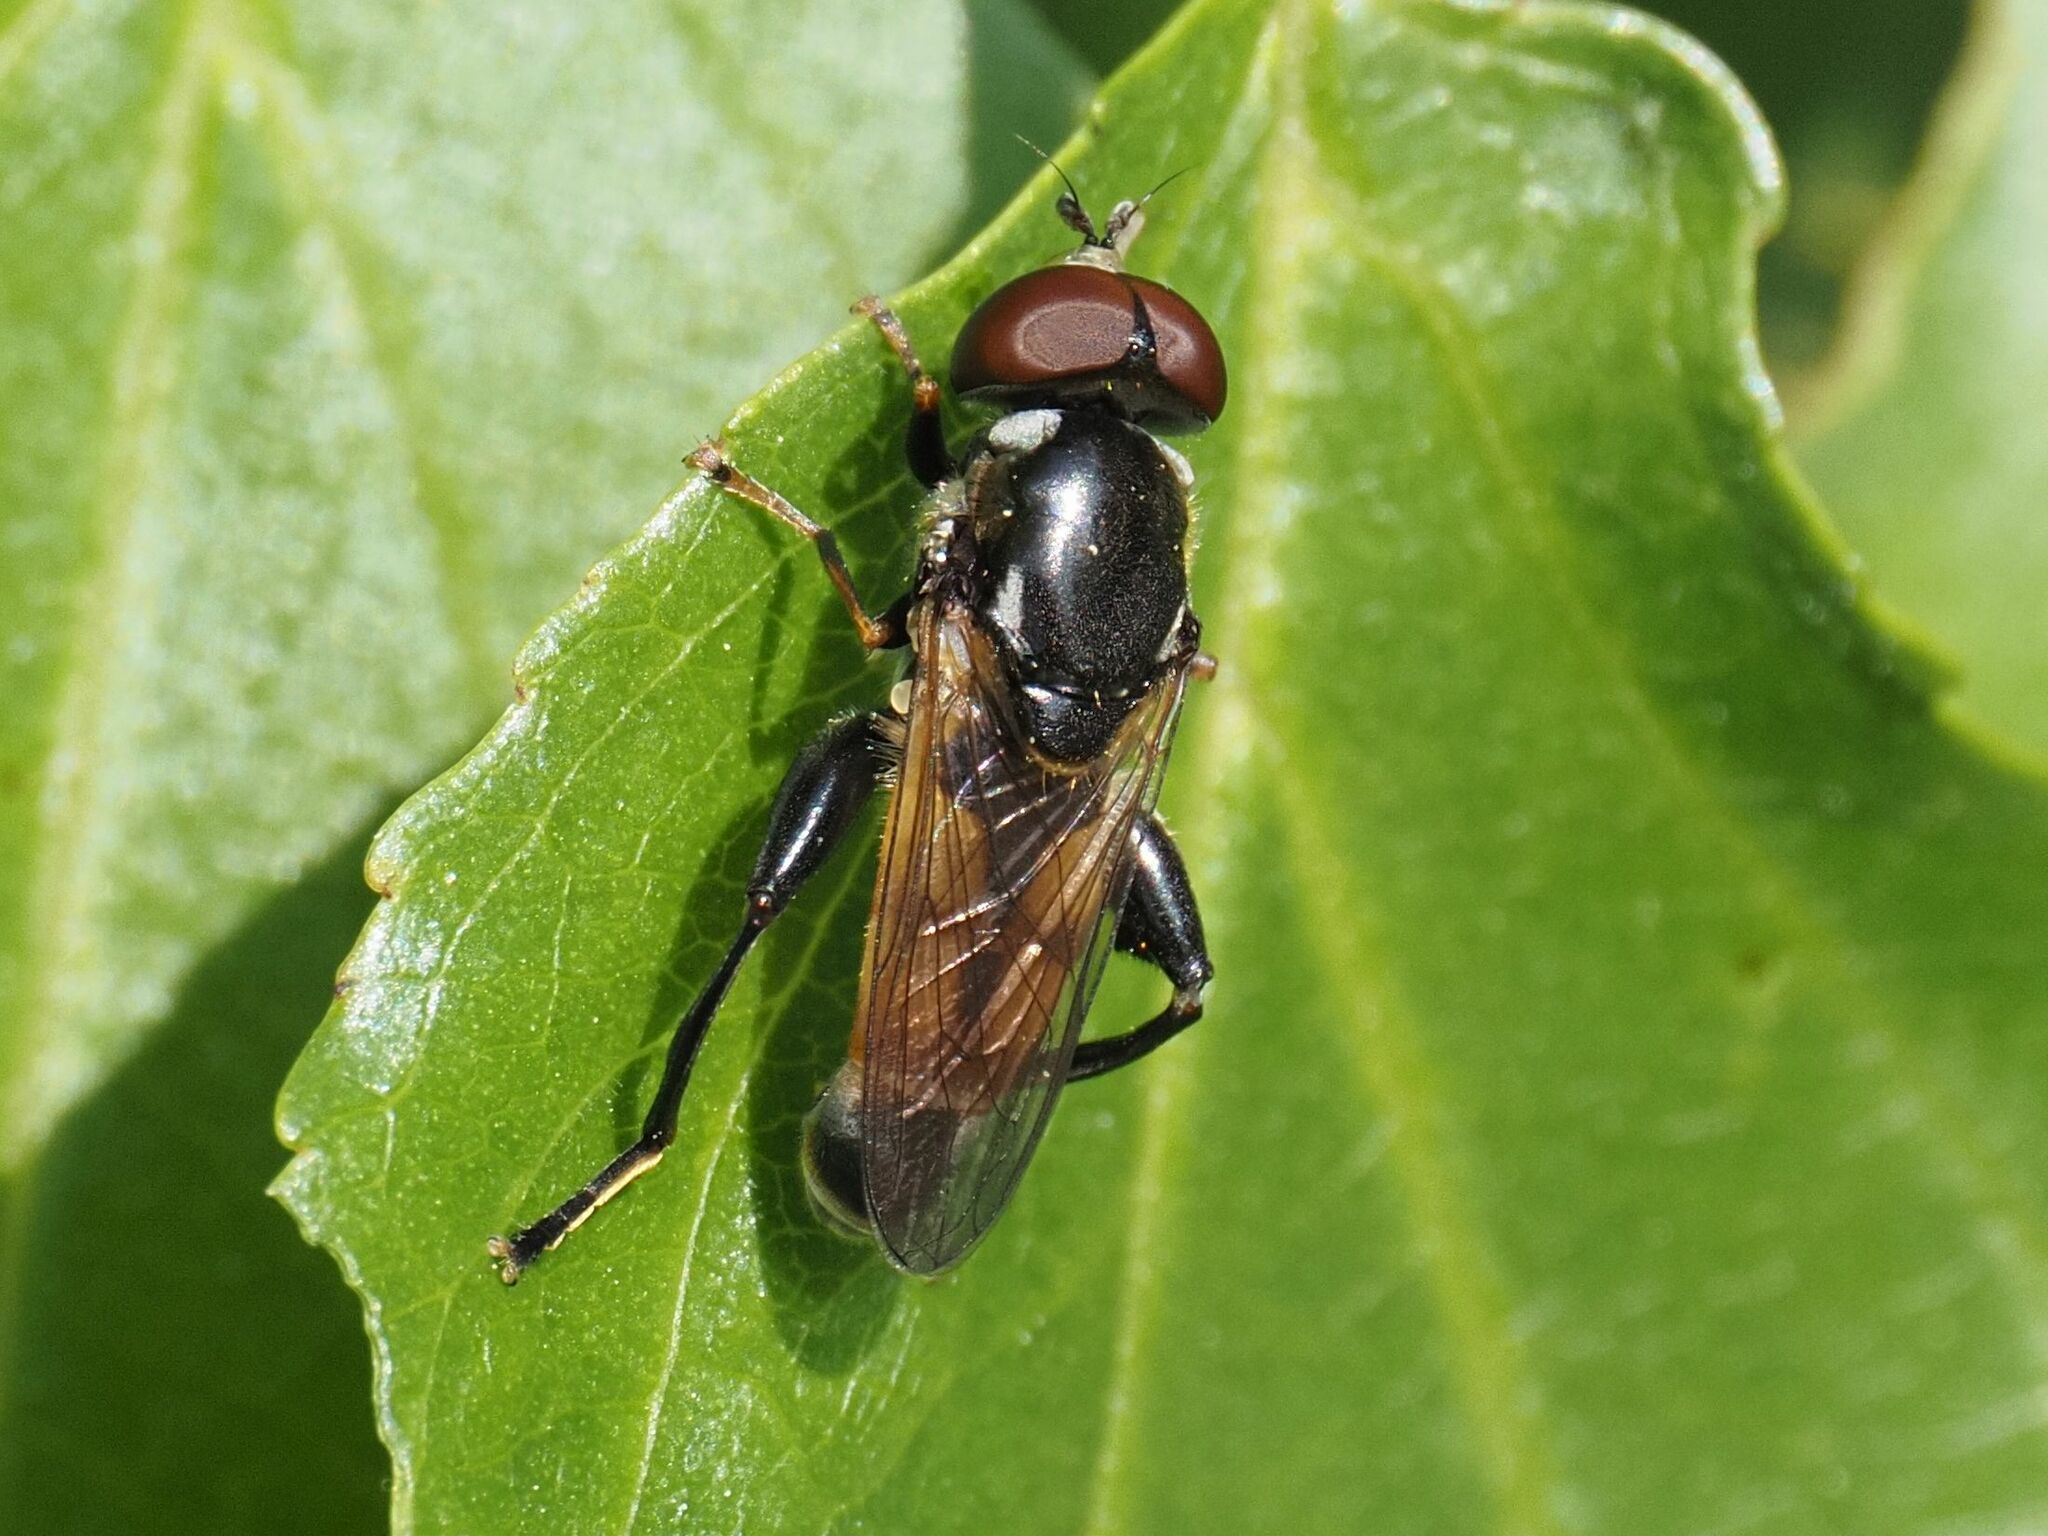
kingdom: Animalia
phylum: Arthropoda
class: Insecta
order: Diptera
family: Syrphidae
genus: Tropidia
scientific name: Tropidia scita
